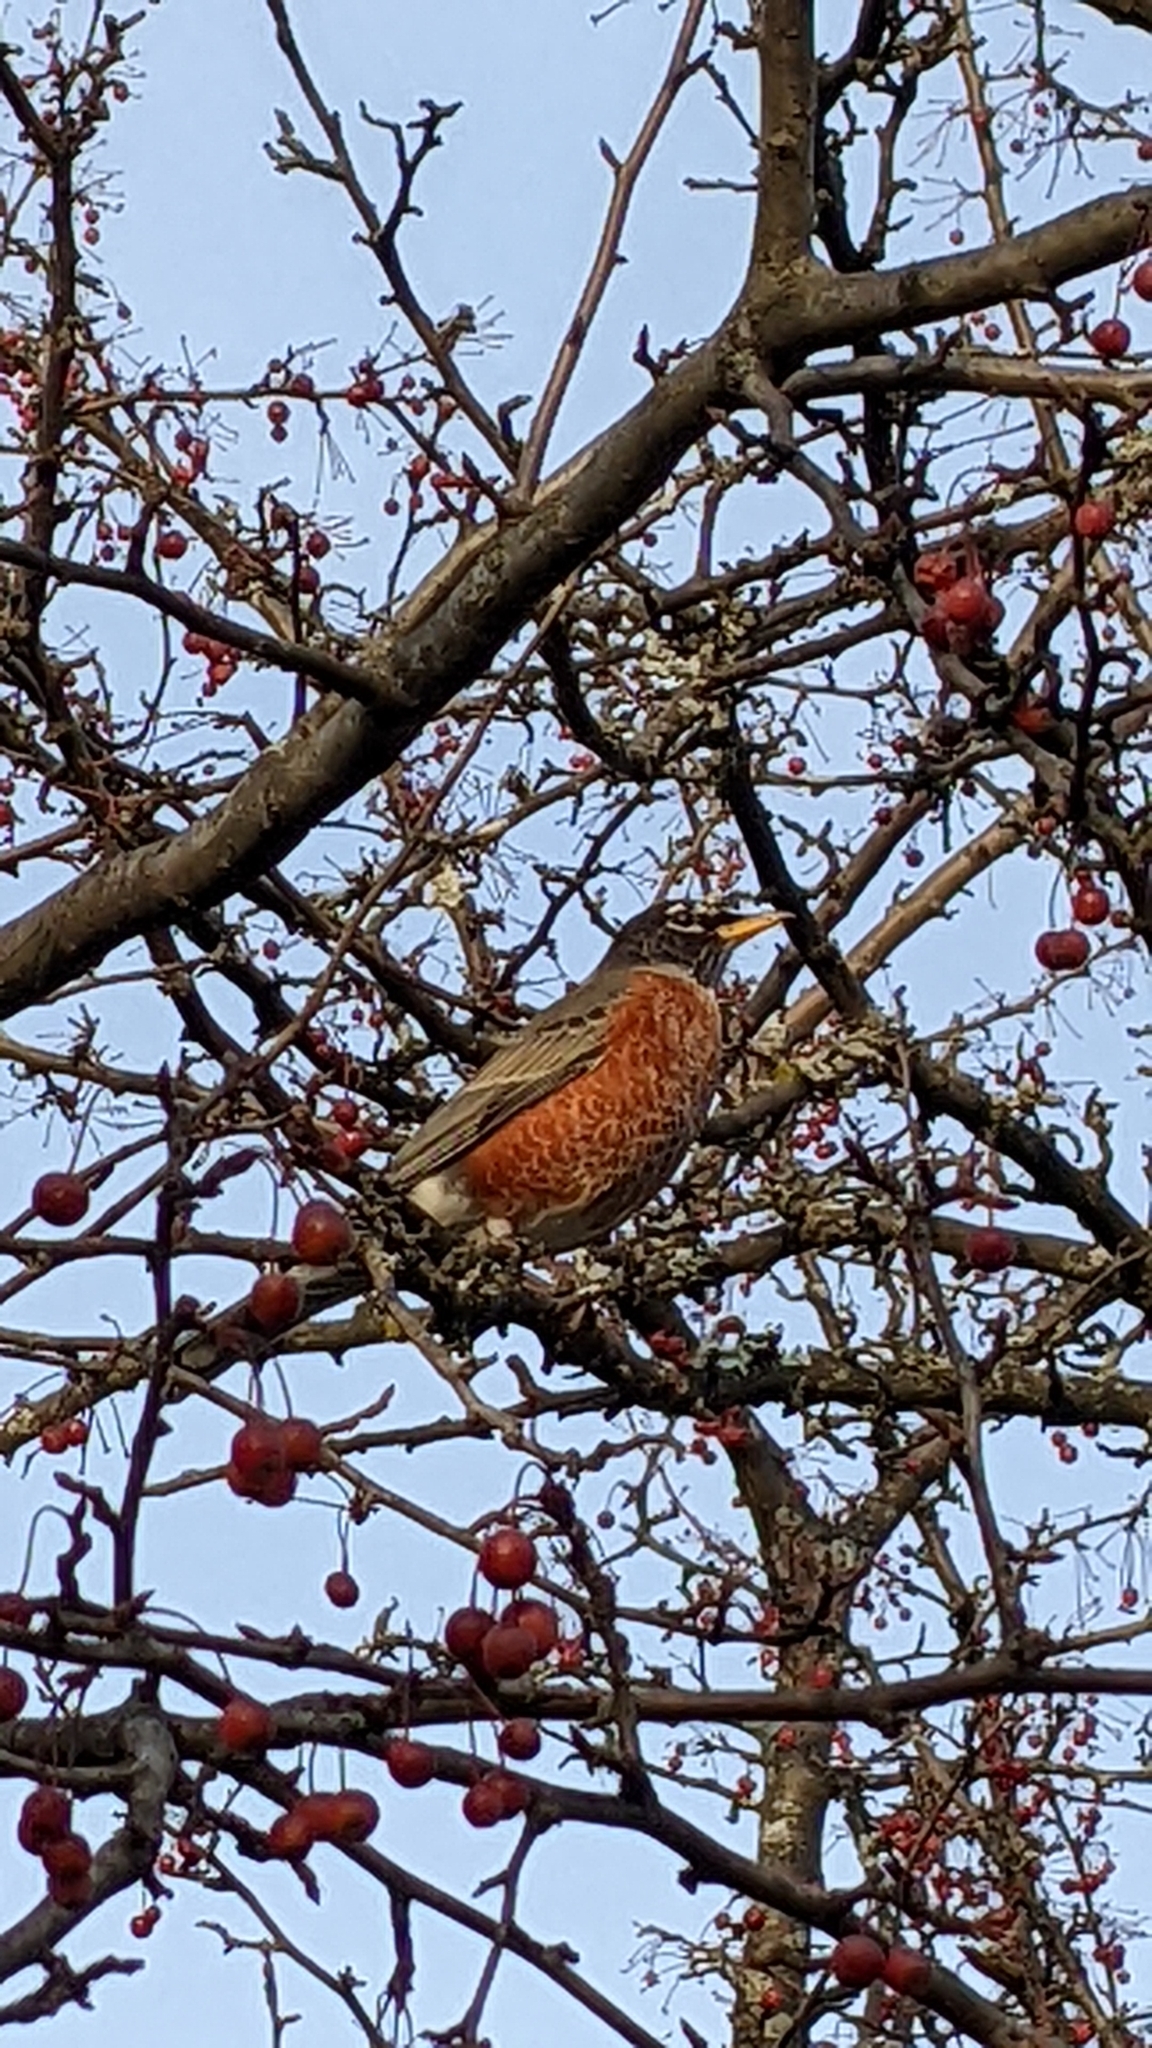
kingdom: Animalia
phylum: Chordata
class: Aves
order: Passeriformes
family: Turdidae
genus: Turdus
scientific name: Turdus migratorius
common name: American robin
